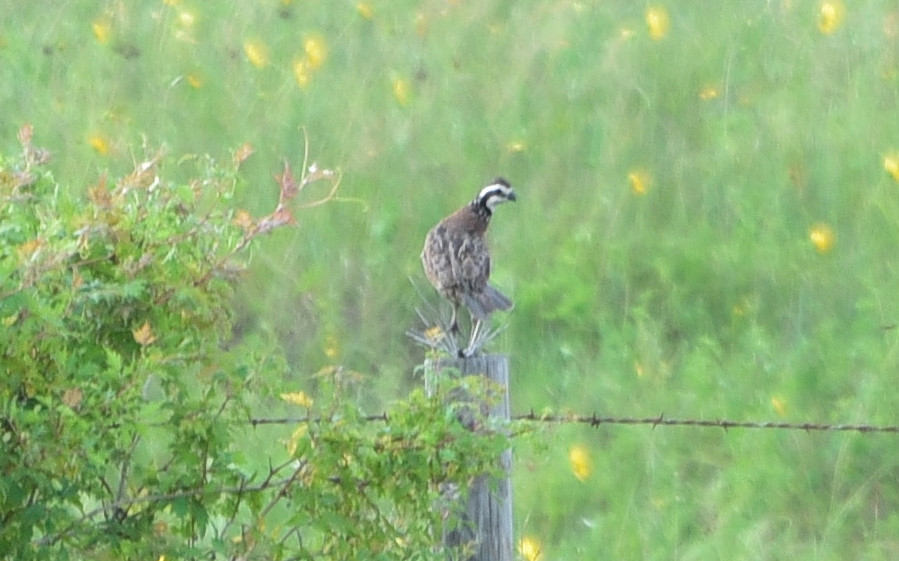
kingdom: Animalia
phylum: Chordata
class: Aves
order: Galliformes
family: Odontophoridae
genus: Colinus
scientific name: Colinus virginianus
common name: Northern bobwhite
